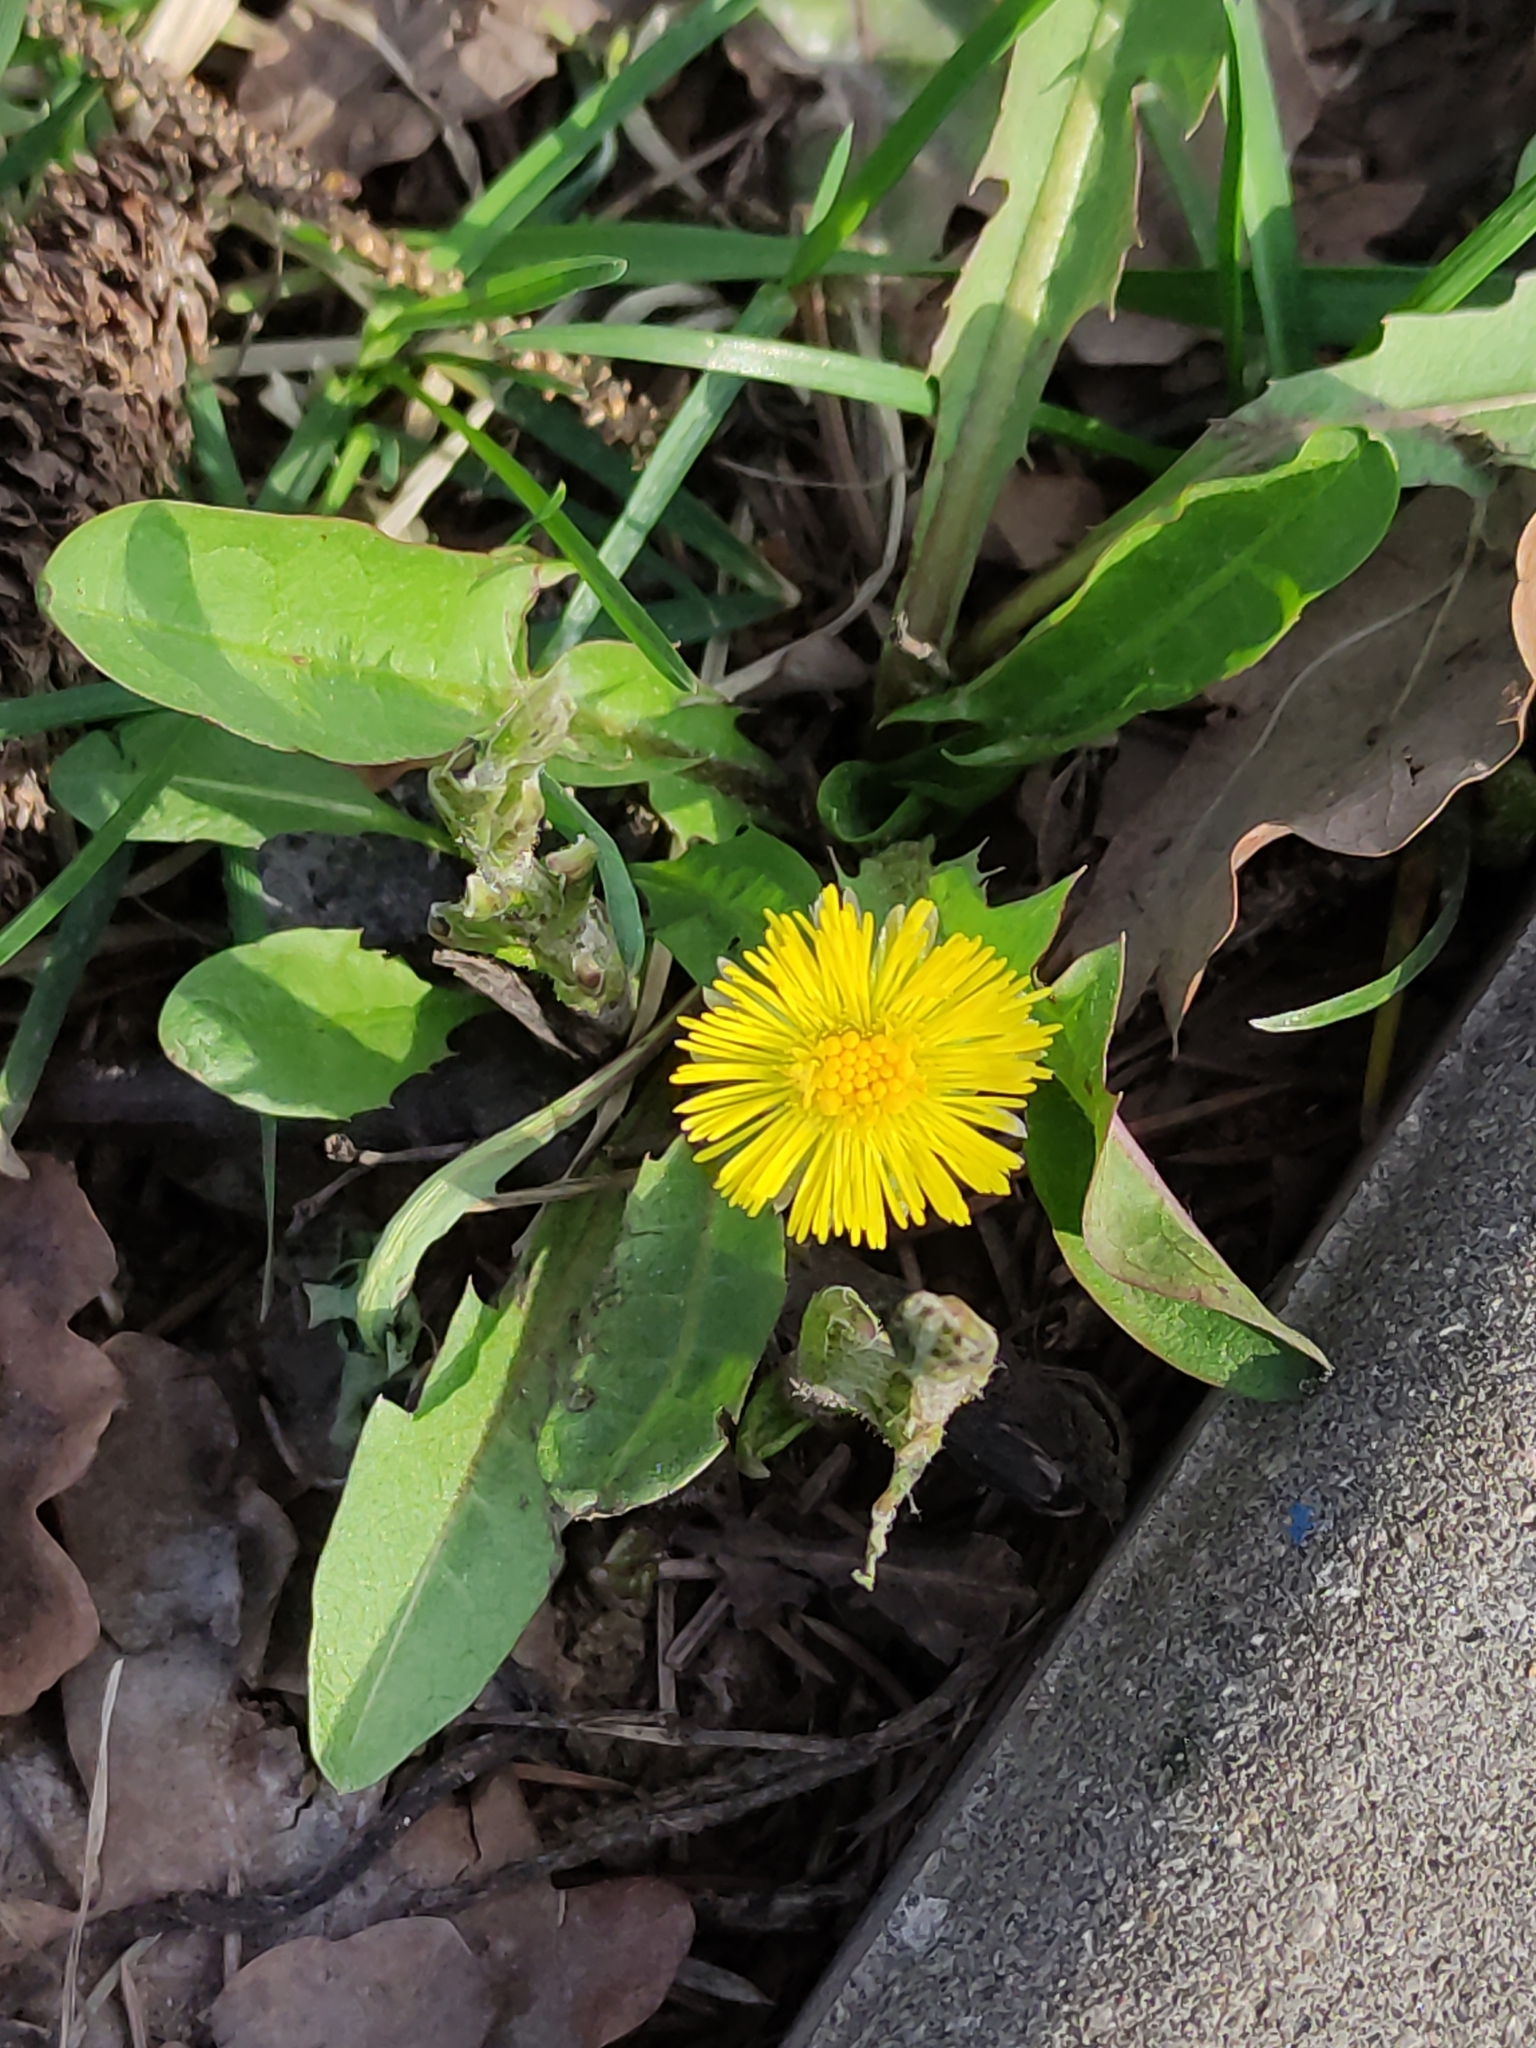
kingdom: Plantae
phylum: Tracheophyta
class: Magnoliopsida
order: Asterales
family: Asteraceae
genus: Taraxacum
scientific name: Taraxacum officinale
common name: Common dandelion
